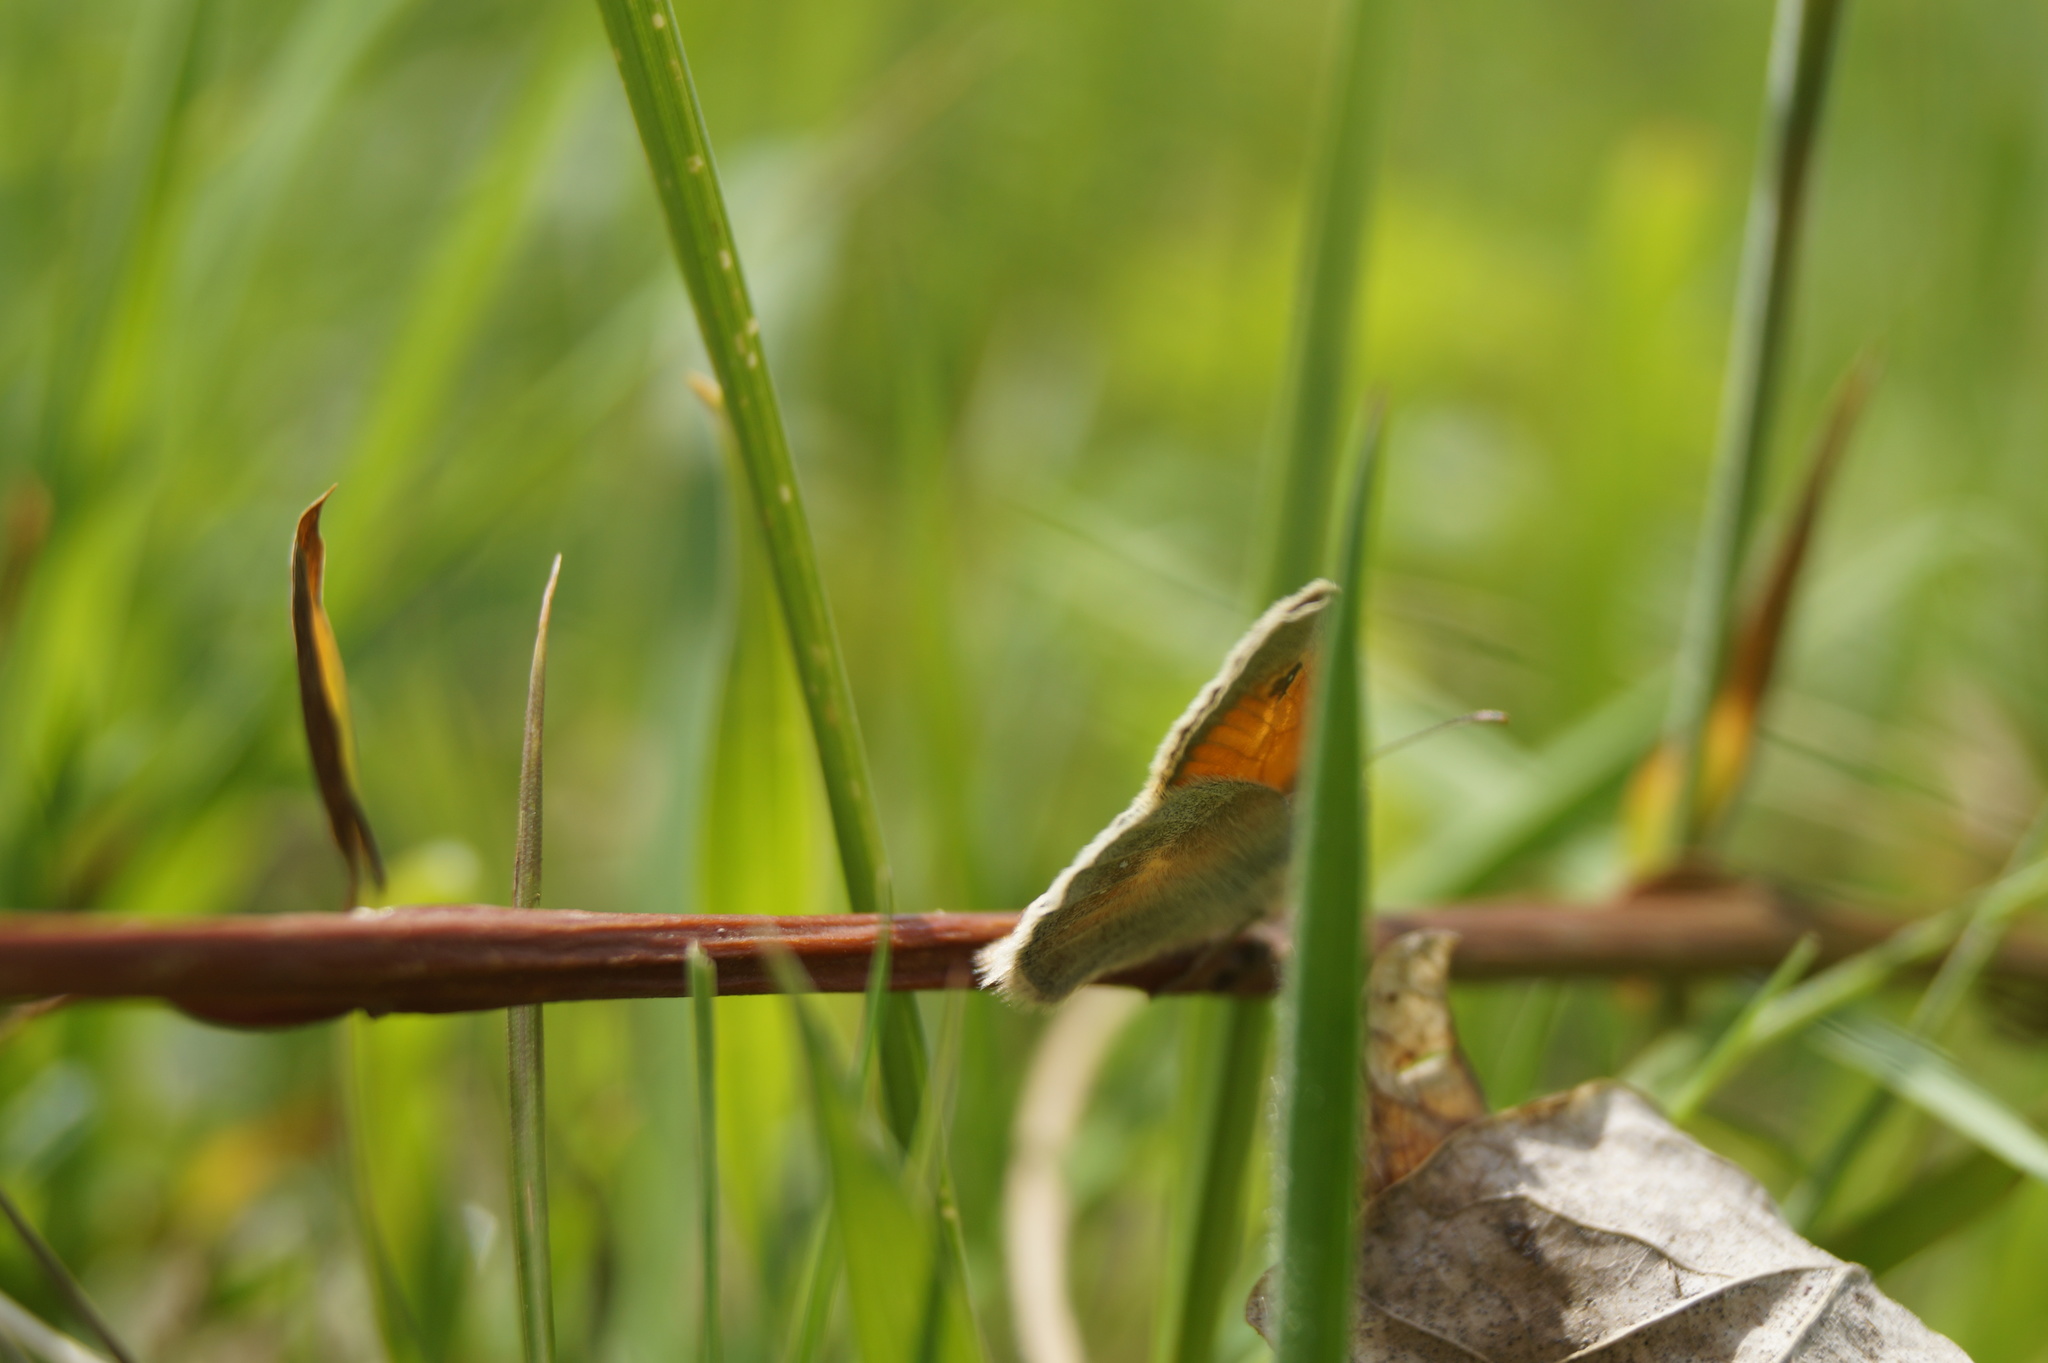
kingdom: Animalia
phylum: Arthropoda
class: Insecta
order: Lepidoptera
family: Nymphalidae
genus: Coenonympha
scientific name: Coenonympha pamphilus
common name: Small heath
